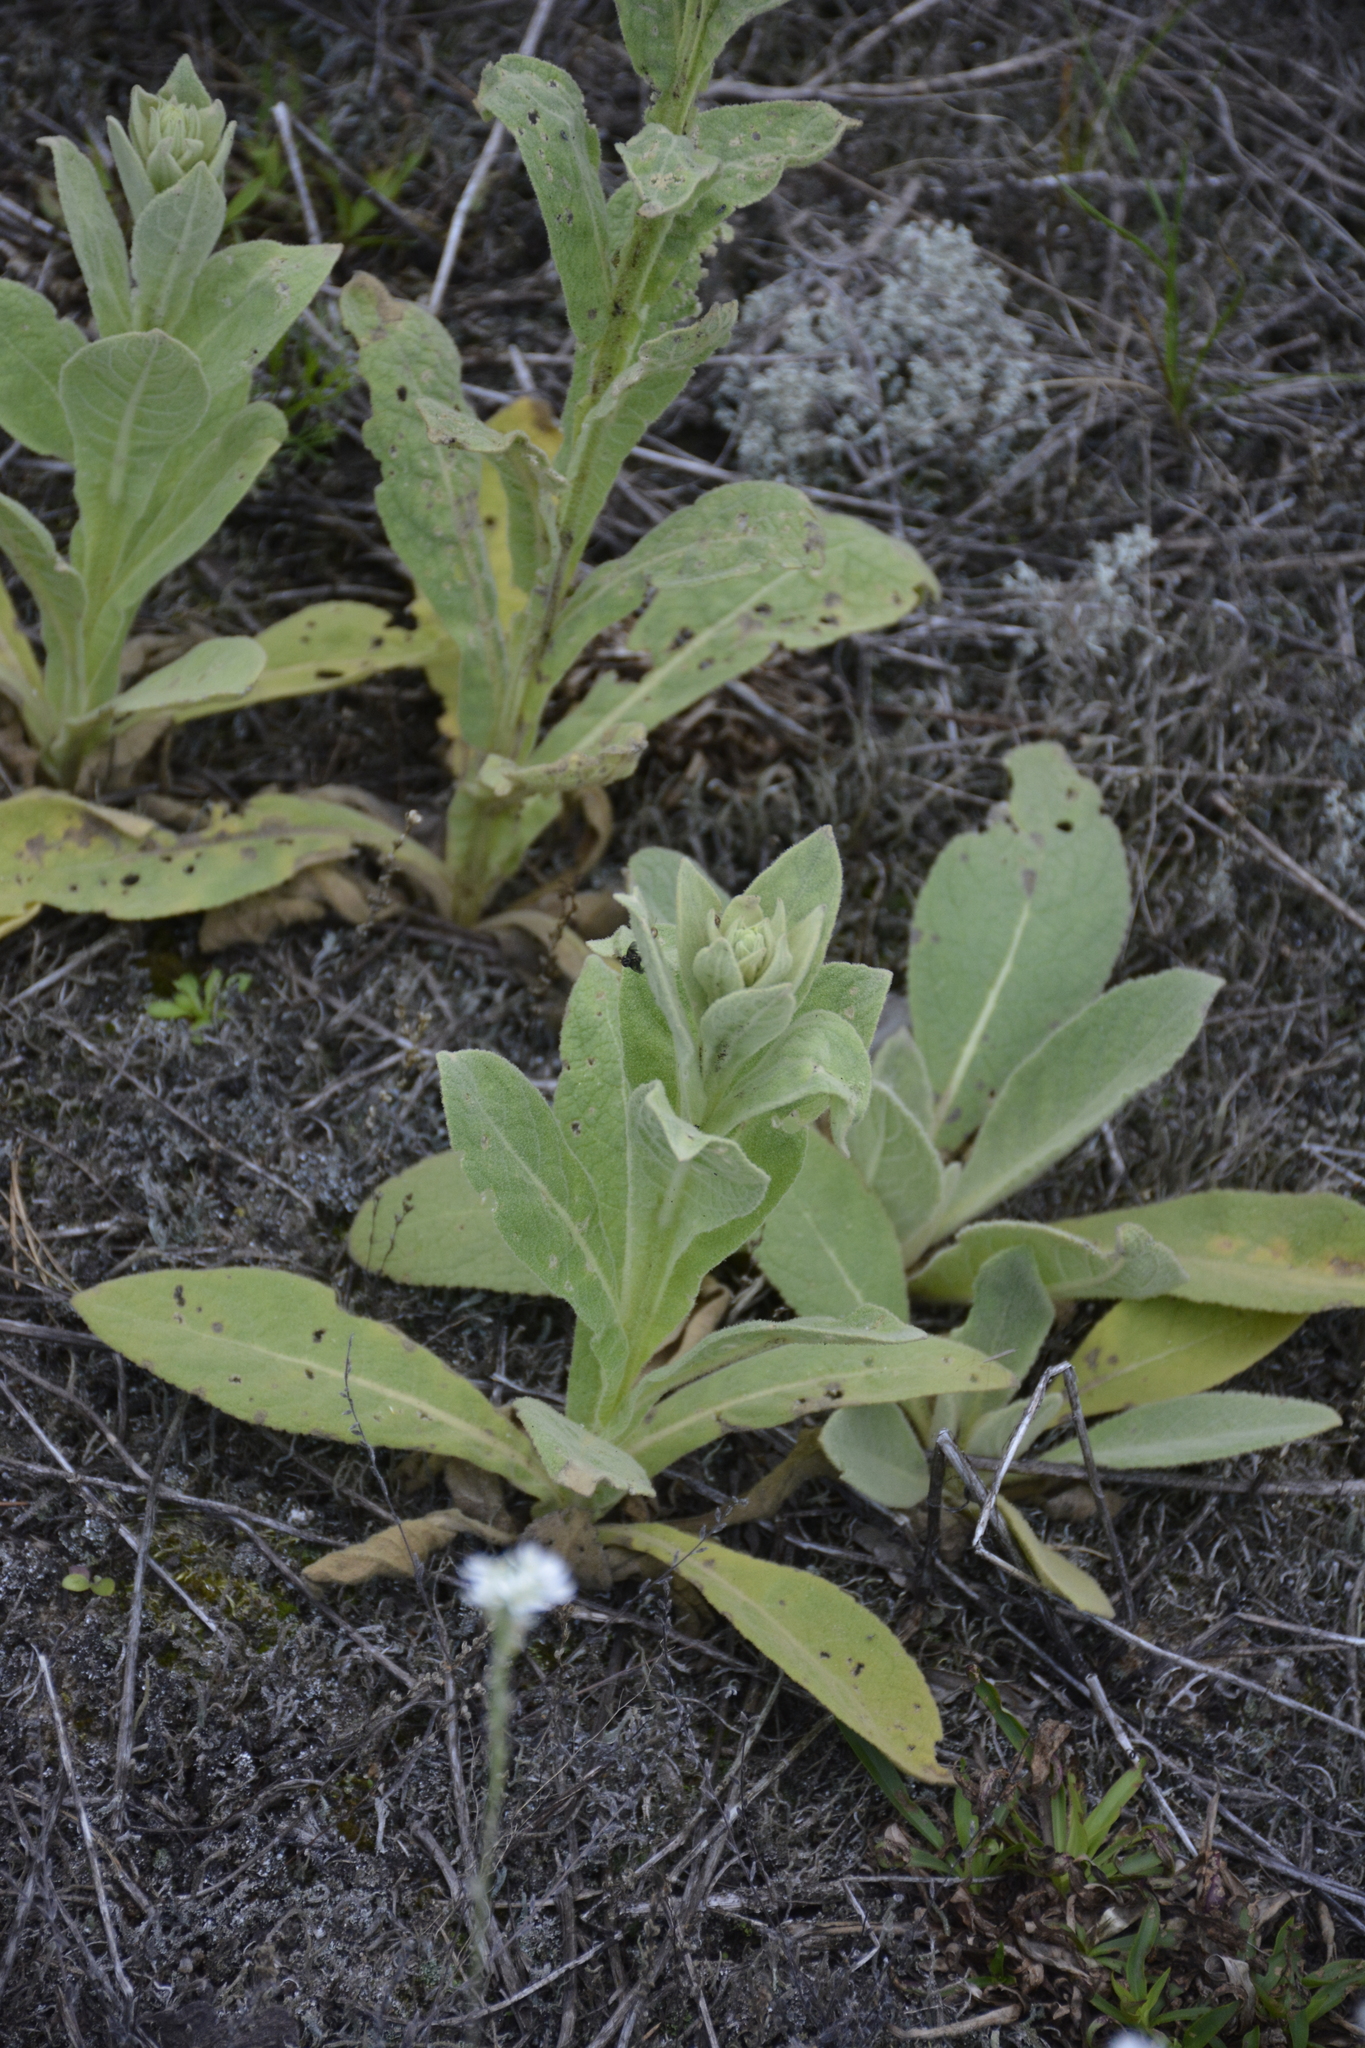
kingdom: Plantae
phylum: Tracheophyta
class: Magnoliopsida
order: Lamiales
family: Scrophulariaceae
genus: Verbascum
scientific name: Verbascum thapsus
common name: Common mullein
